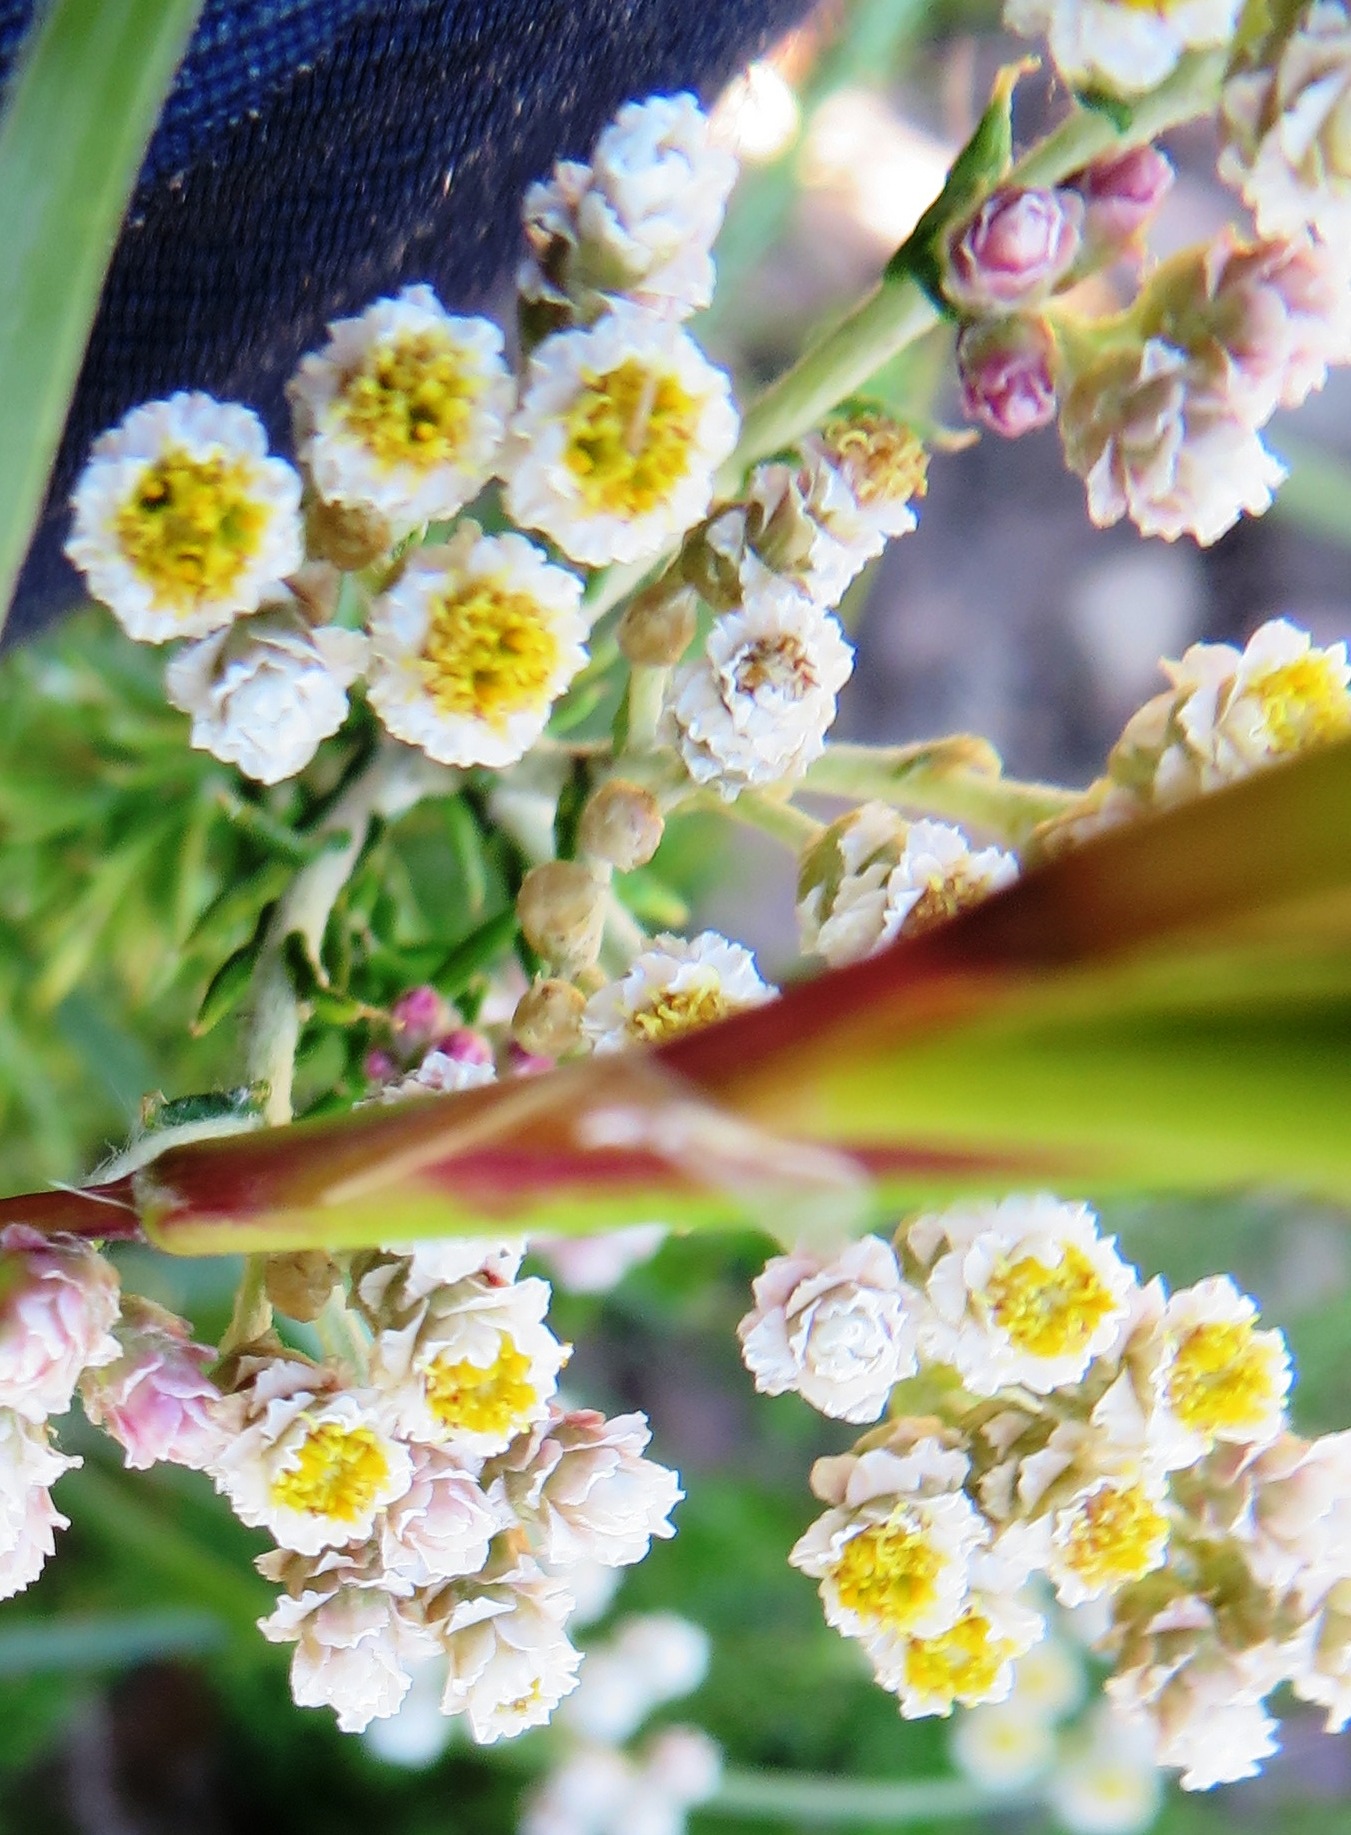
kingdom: Plantae
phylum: Tracheophyta
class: Magnoliopsida
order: Asterales
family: Asteraceae
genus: Helichrysum
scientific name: Helichrysum teretifolium
